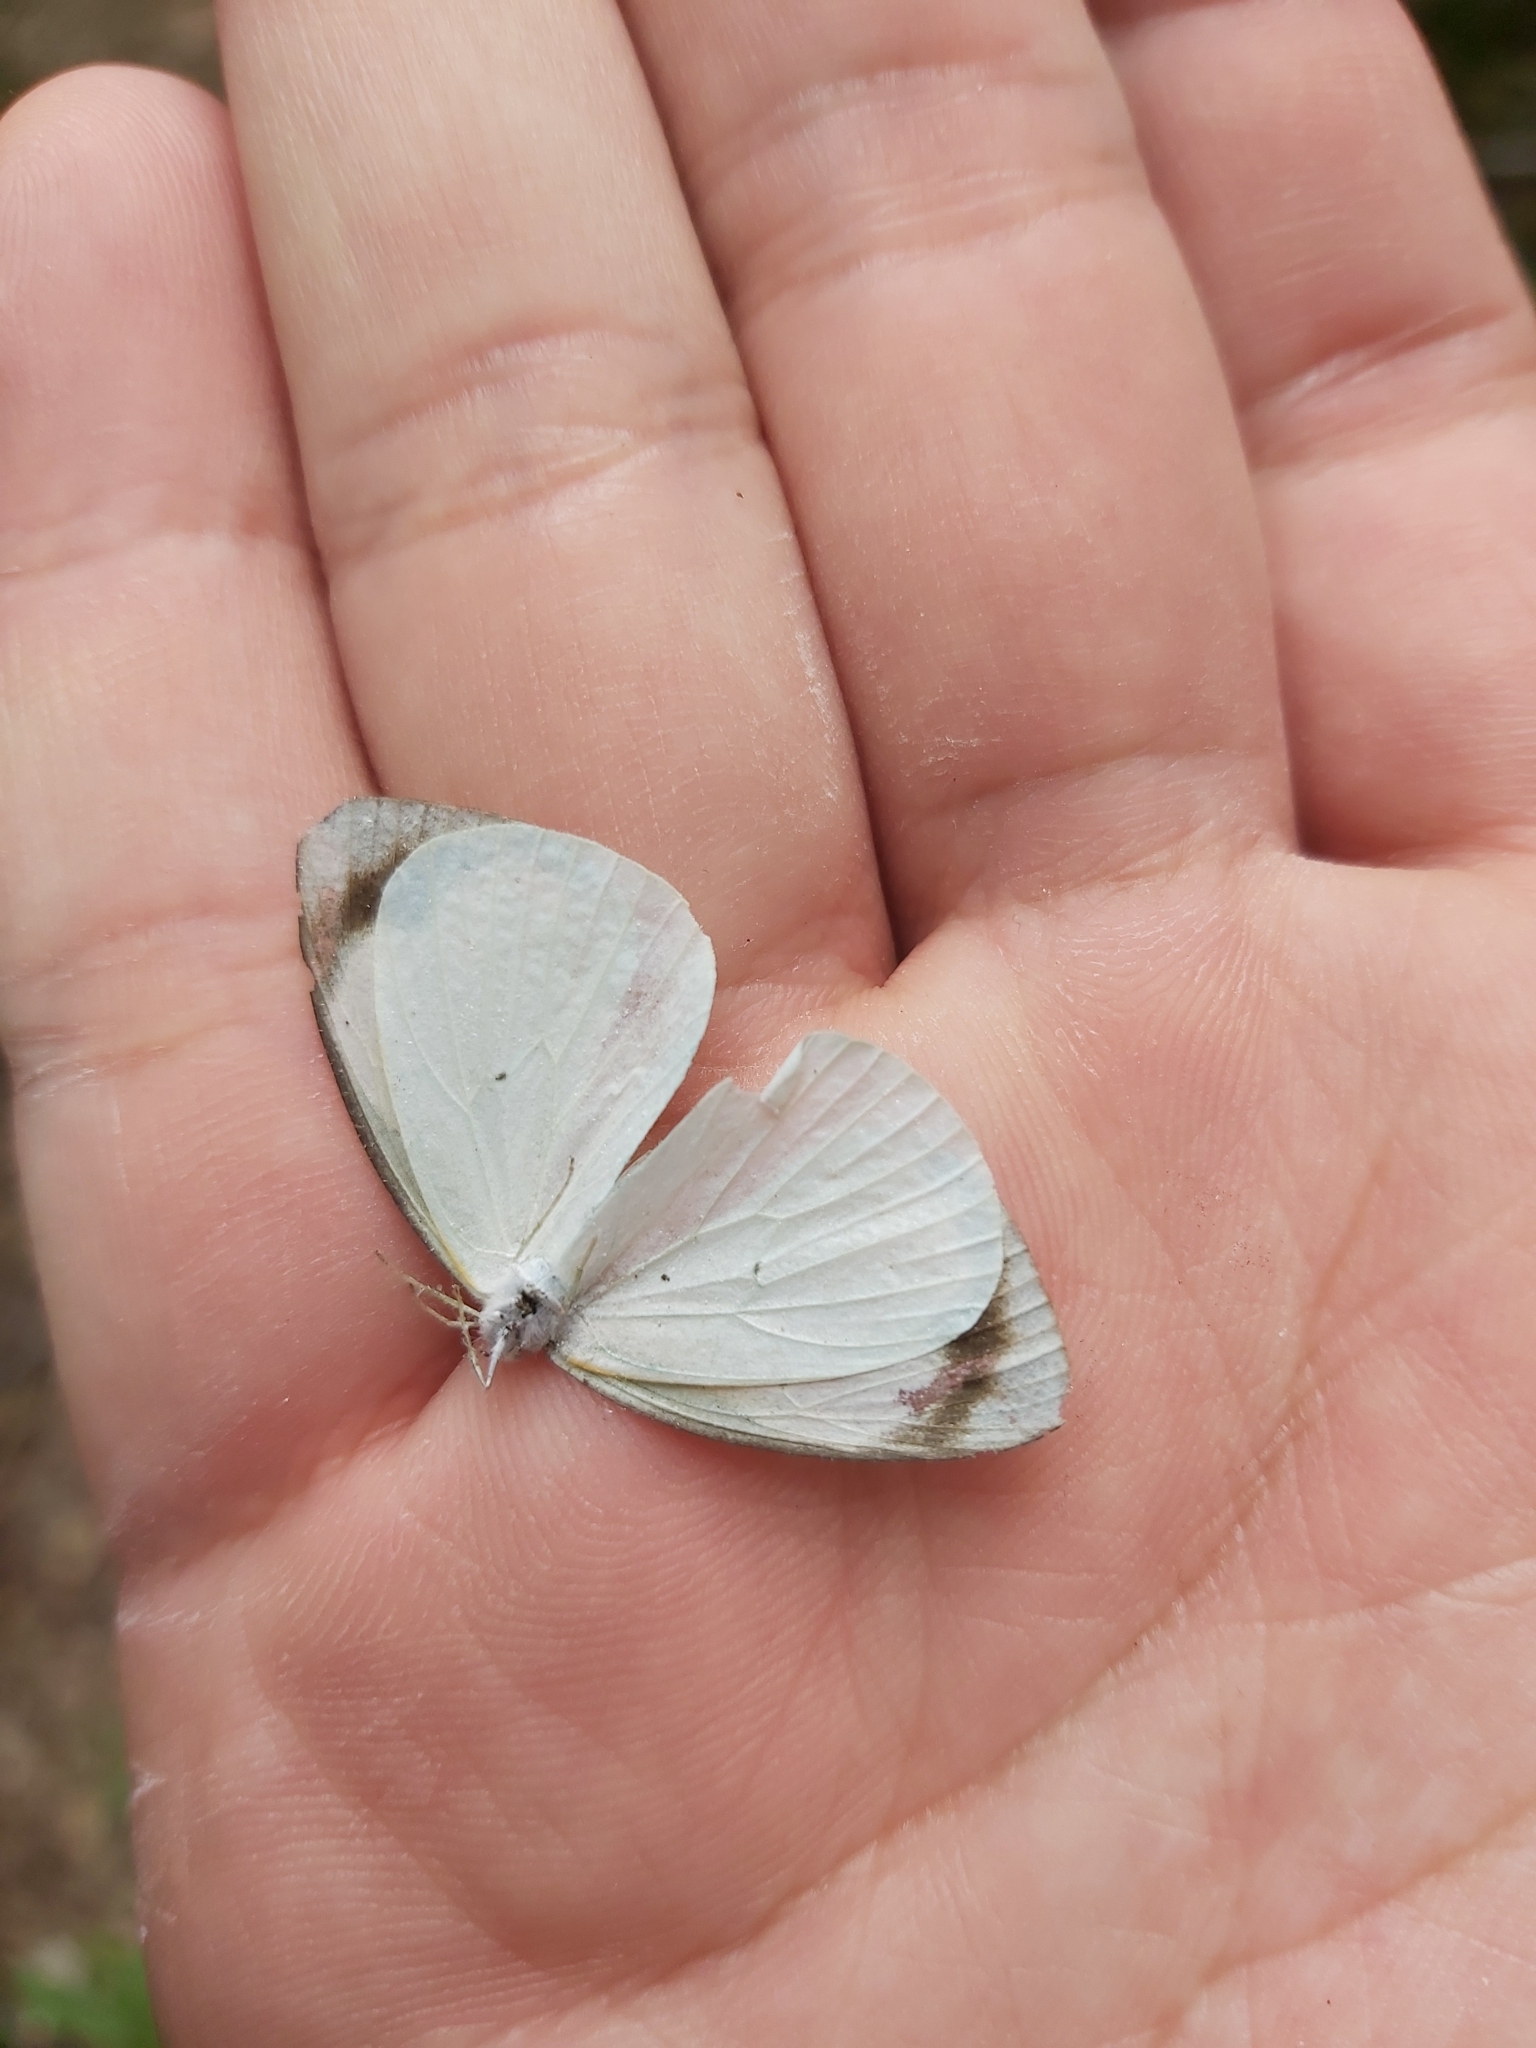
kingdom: Animalia
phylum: Arthropoda
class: Insecta
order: Lepidoptera
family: Pieridae
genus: Elodina
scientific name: Elodina queenslandica
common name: Glistening pearl-white
